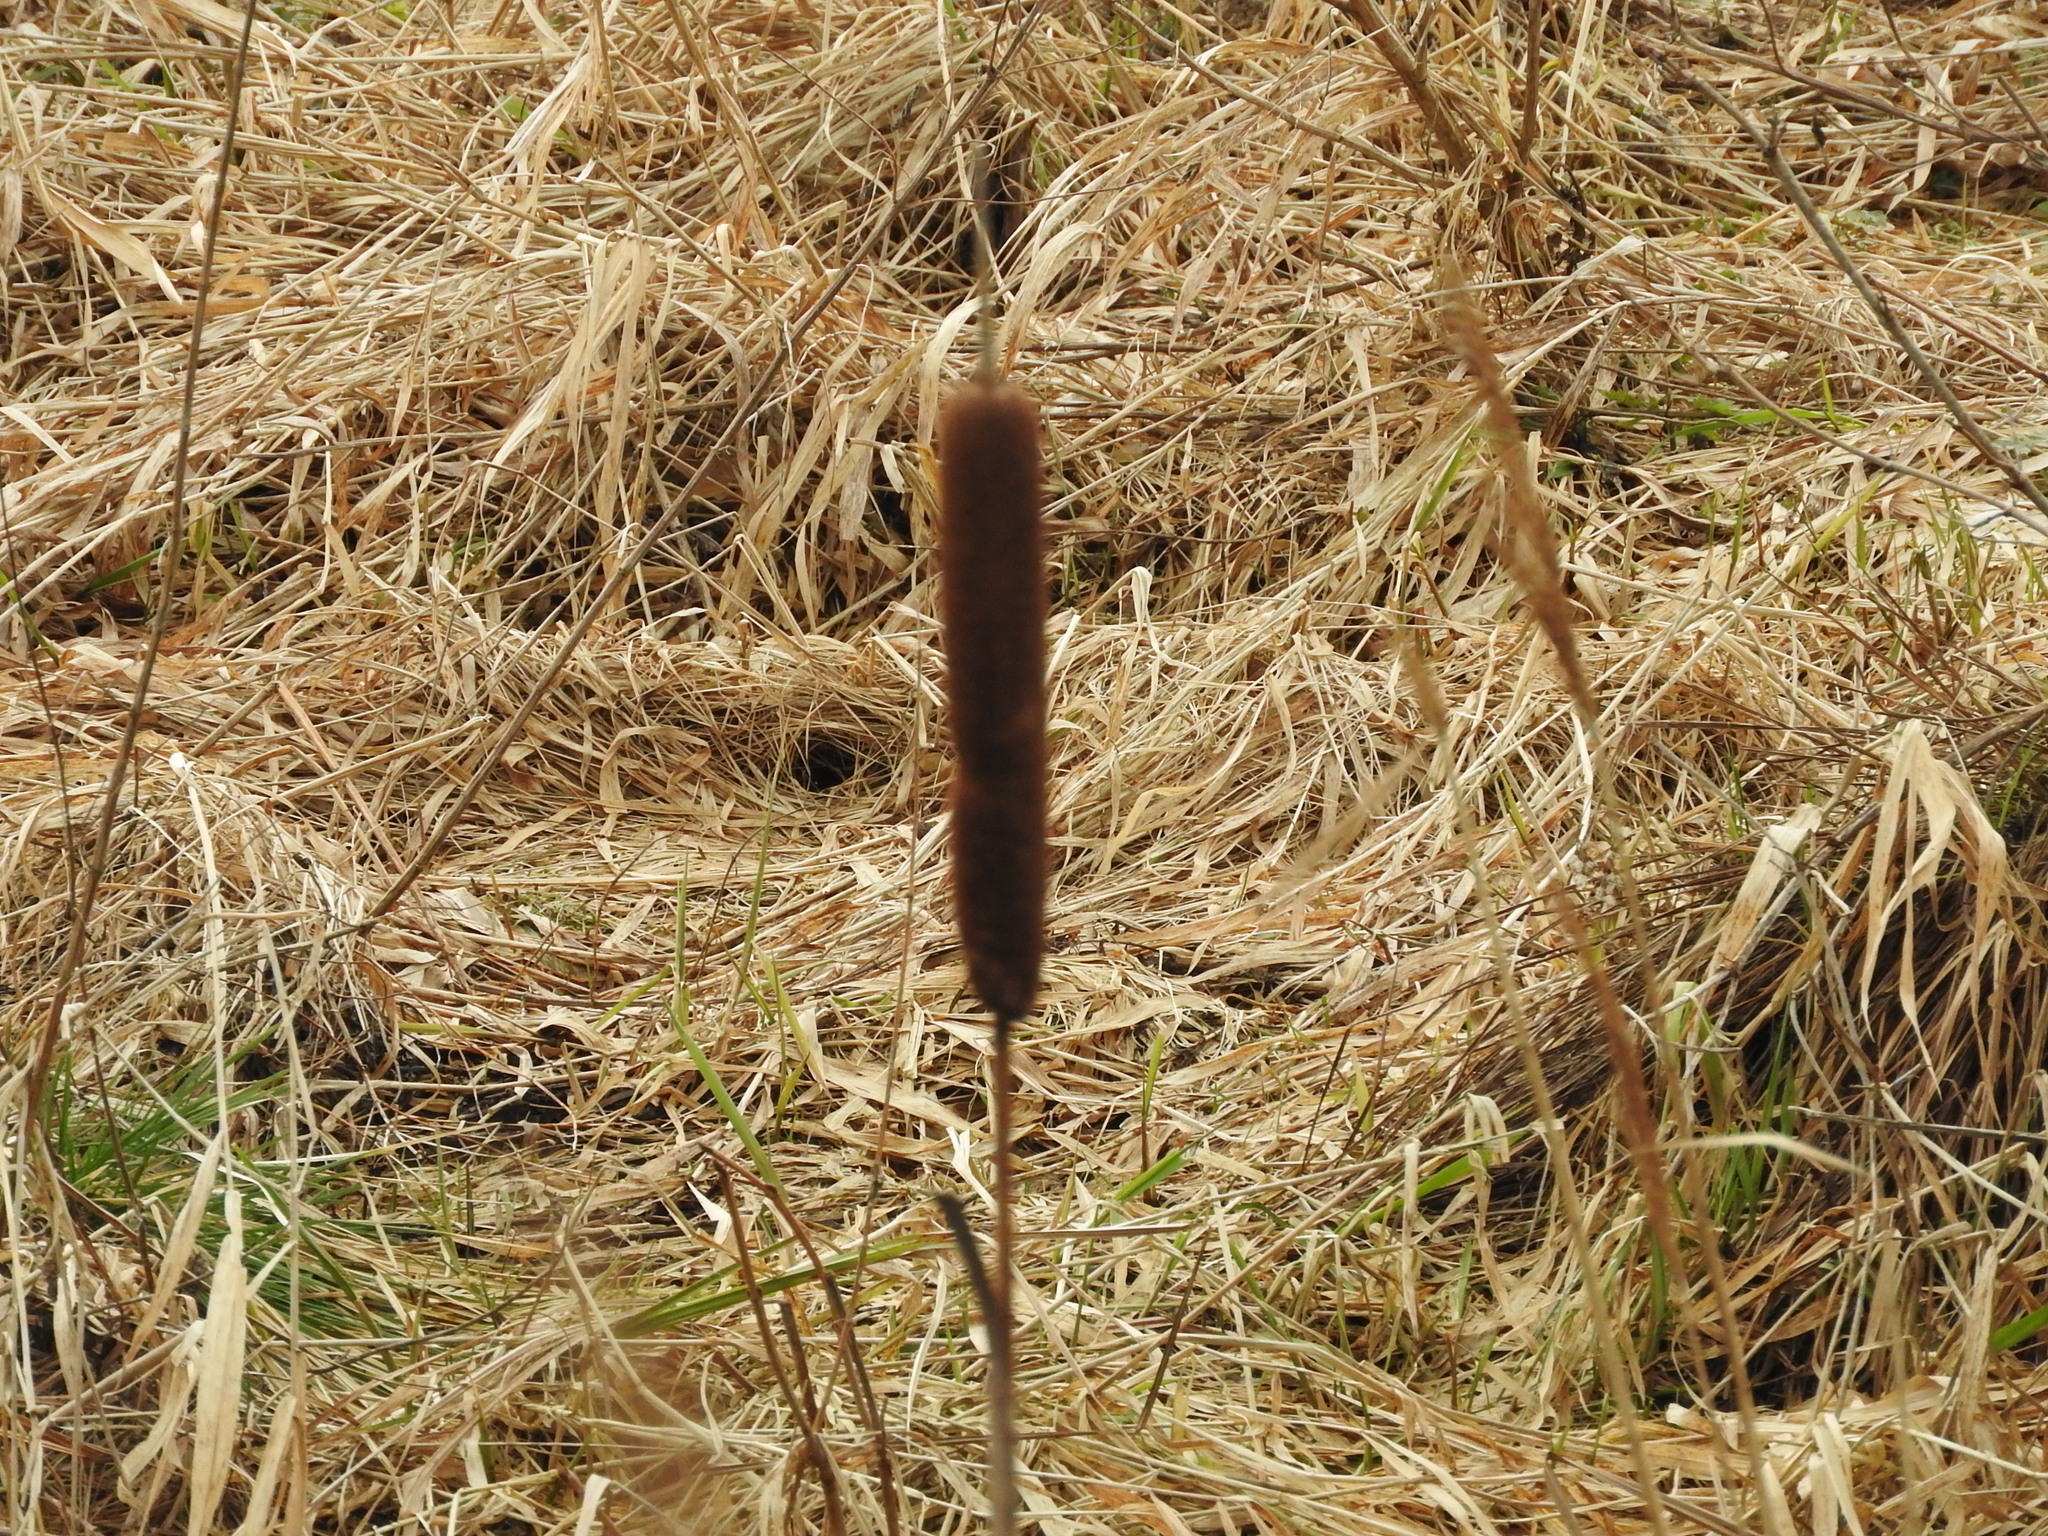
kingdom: Plantae
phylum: Tracheophyta
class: Liliopsida
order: Poales
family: Typhaceae
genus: Typha
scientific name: Typha latifolia
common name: Broadleaf cattail
